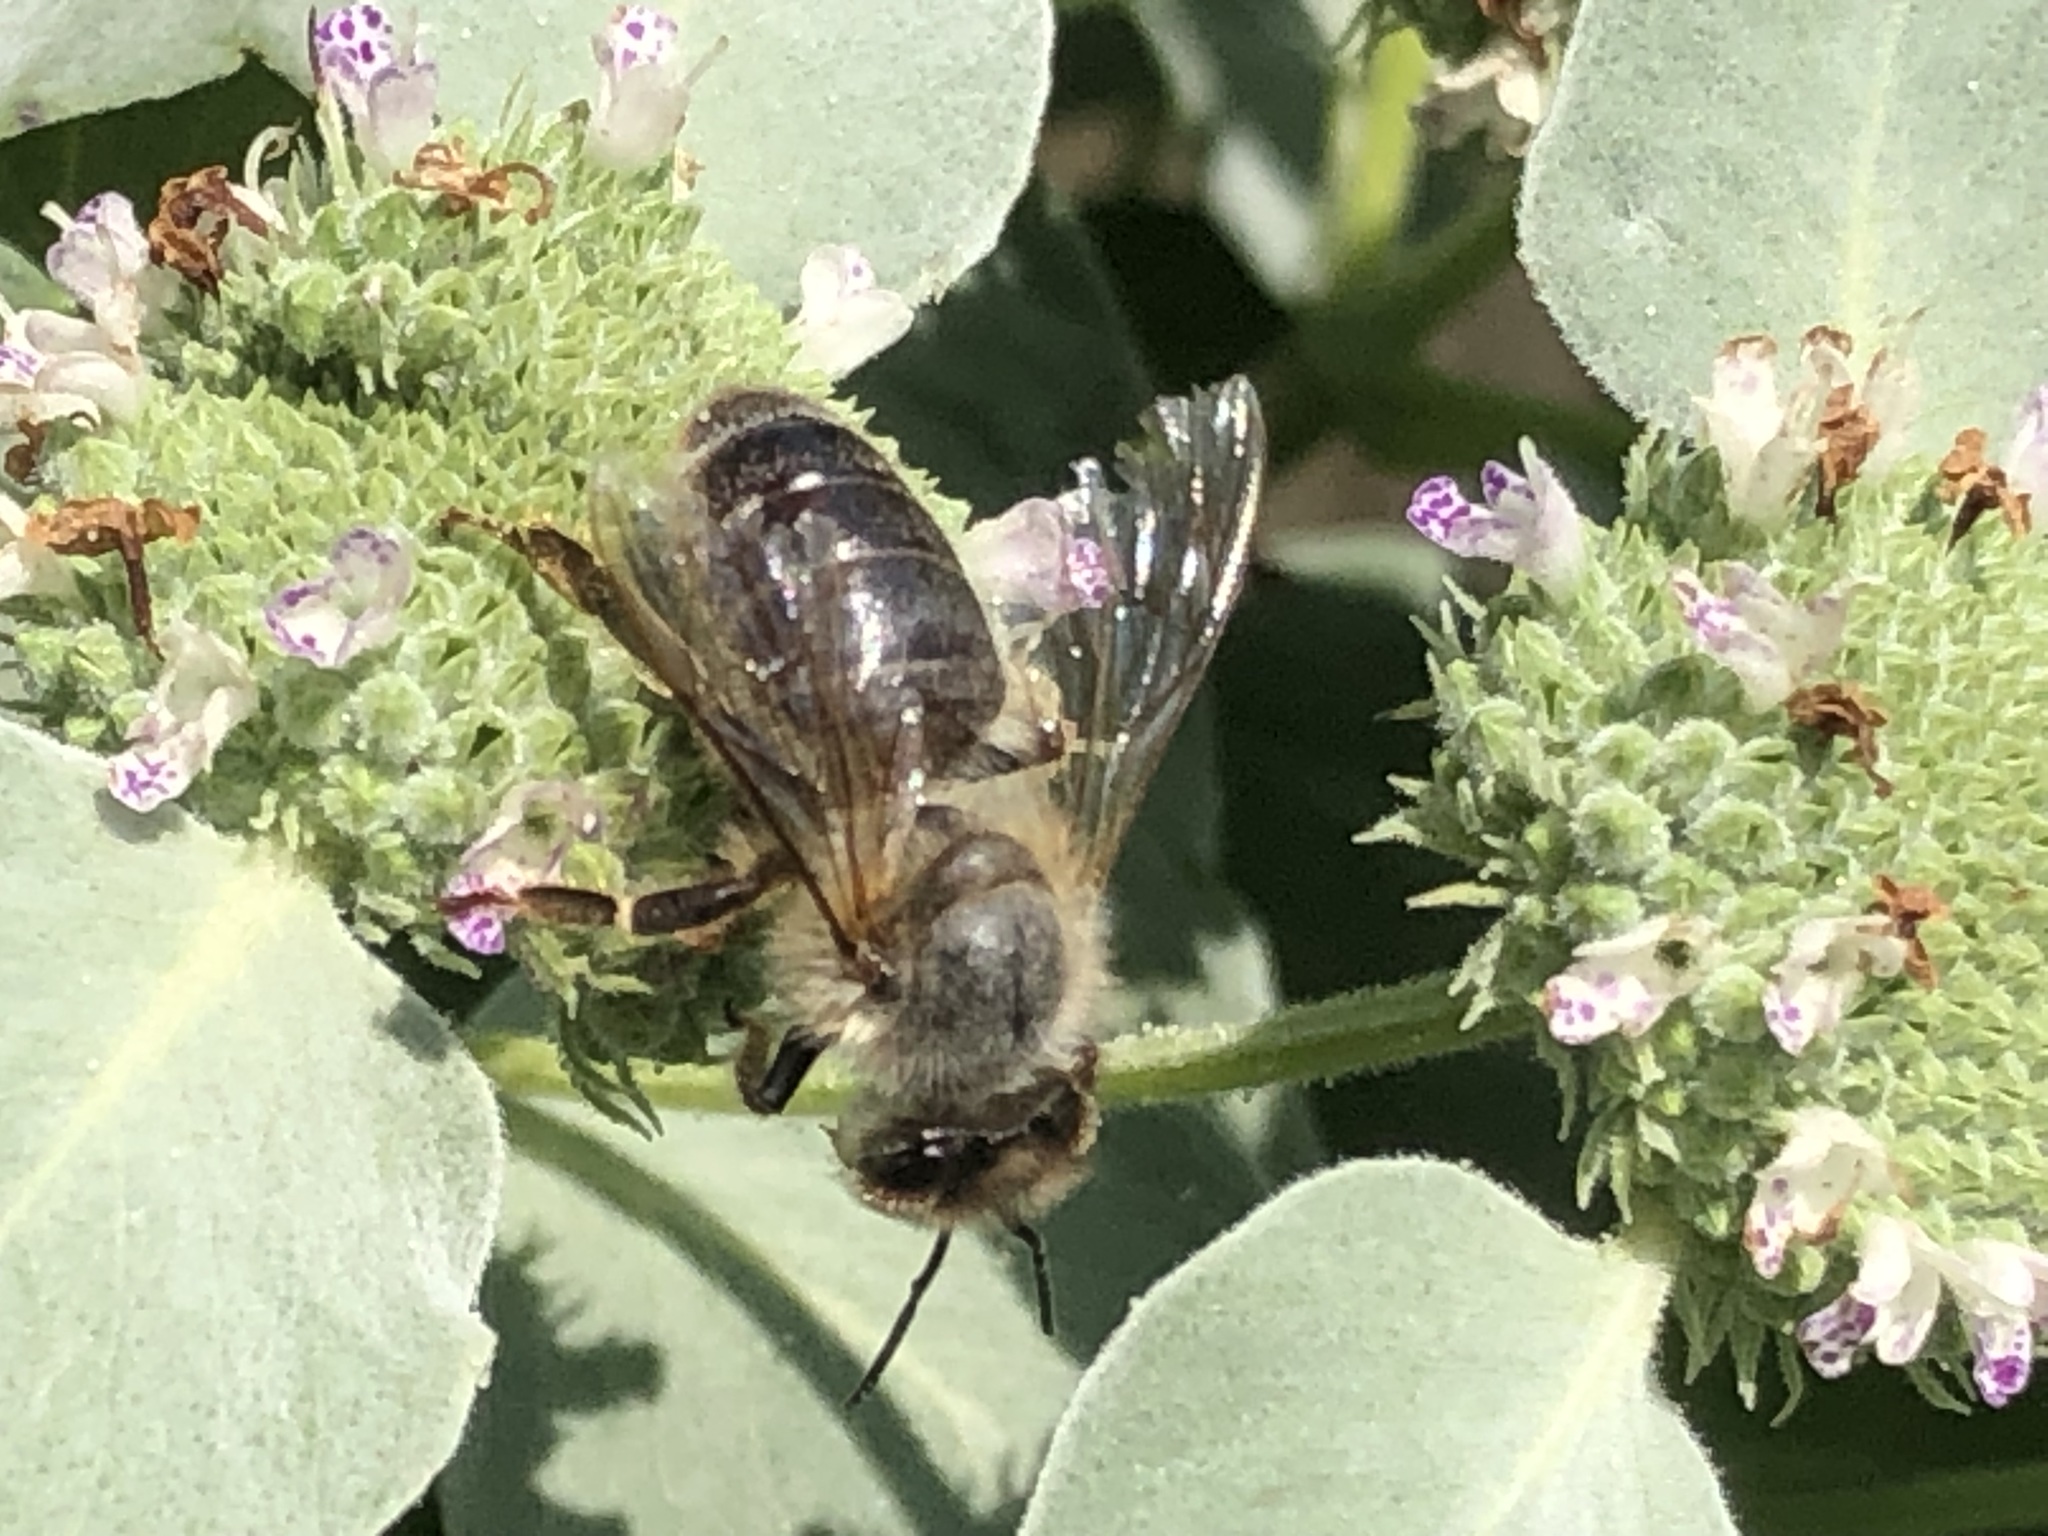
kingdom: Animalia
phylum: Arthropoda
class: Insecta
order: Hymenoptera
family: Apidae
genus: Apis
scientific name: Apis mellifera
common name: Honey bee
